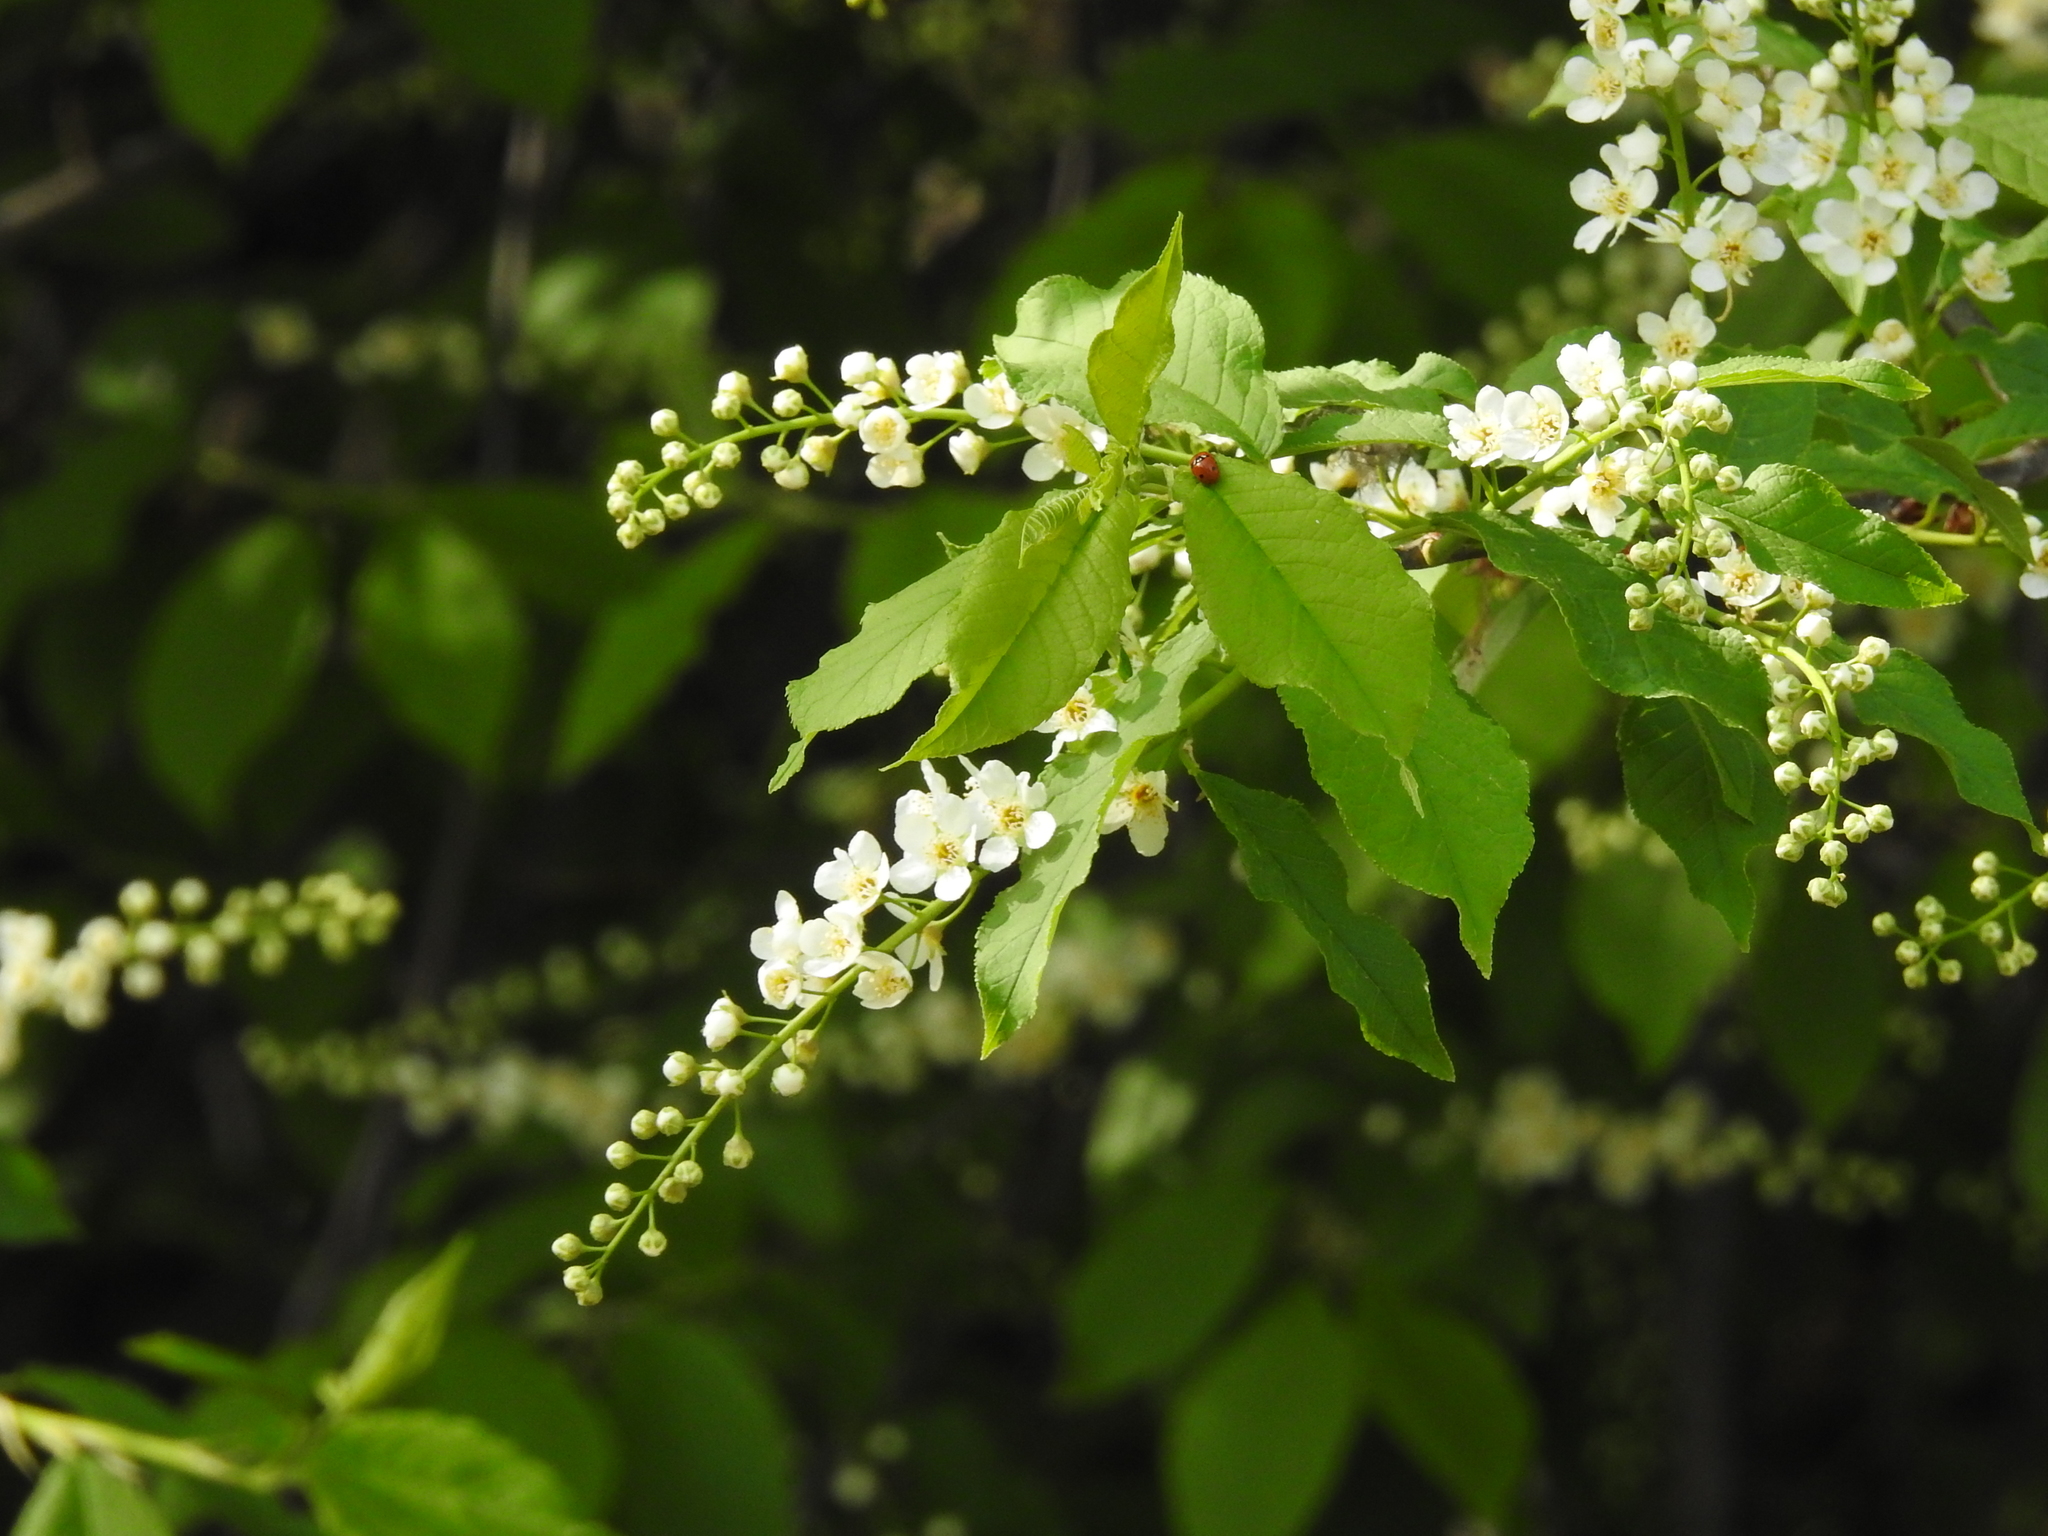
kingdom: Plantae
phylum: Tracheophyta
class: Magnoliopsida
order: Rosales
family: Rosaceae
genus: Prunus
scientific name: Prunus padus
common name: Bird cherry
